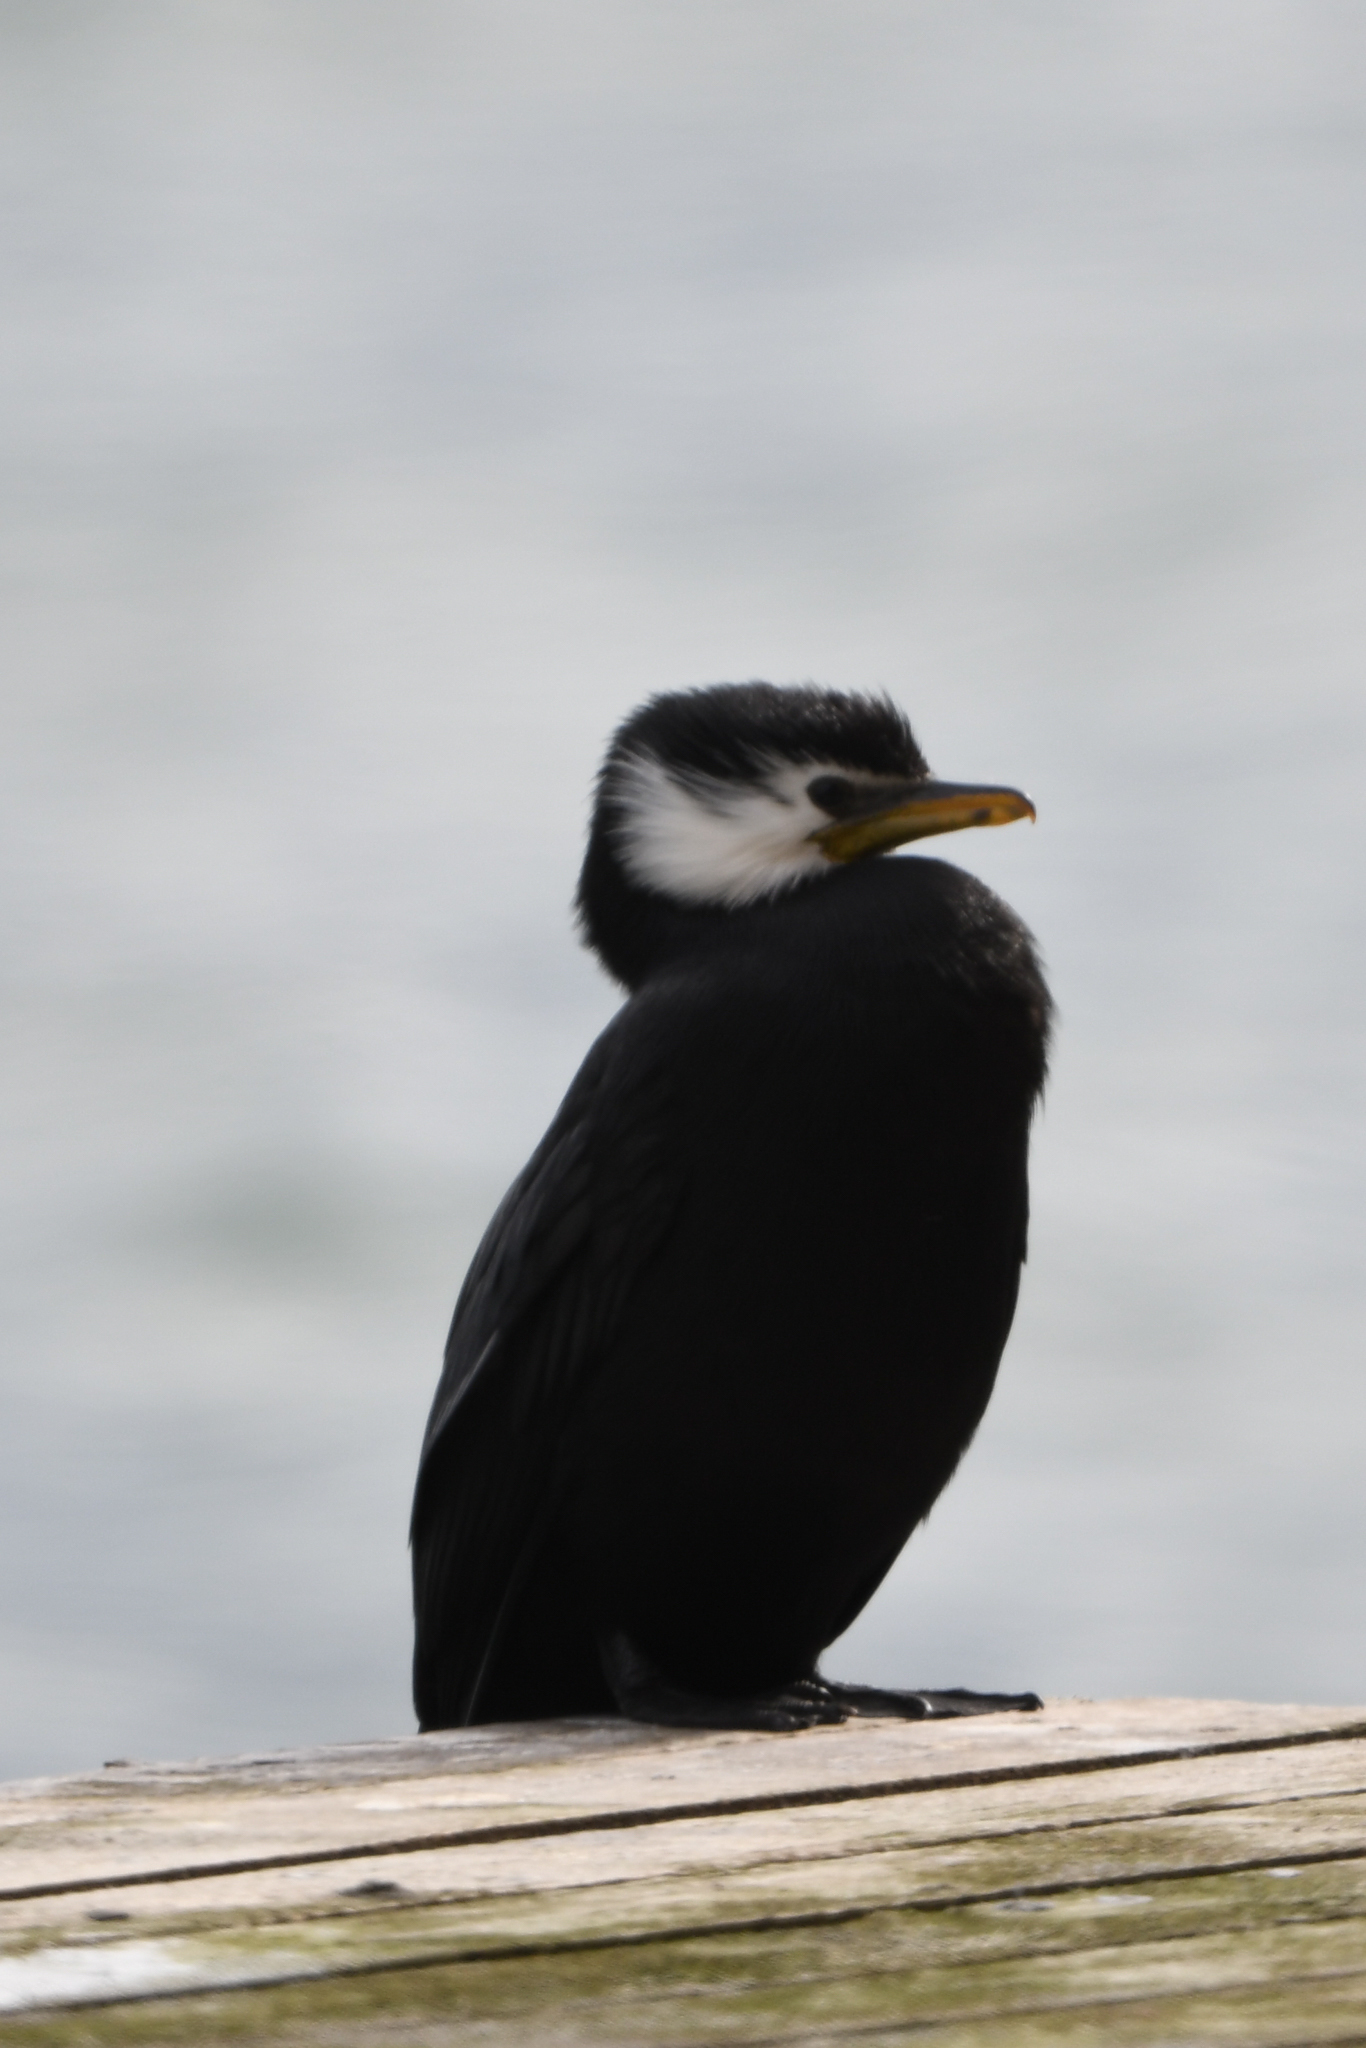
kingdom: Animalia
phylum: Chordata
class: Aves
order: Suliformes
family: Phalacrocoracidae
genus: Microcarbo
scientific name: Microcarbo melanoleucos
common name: Little pied cormorant
